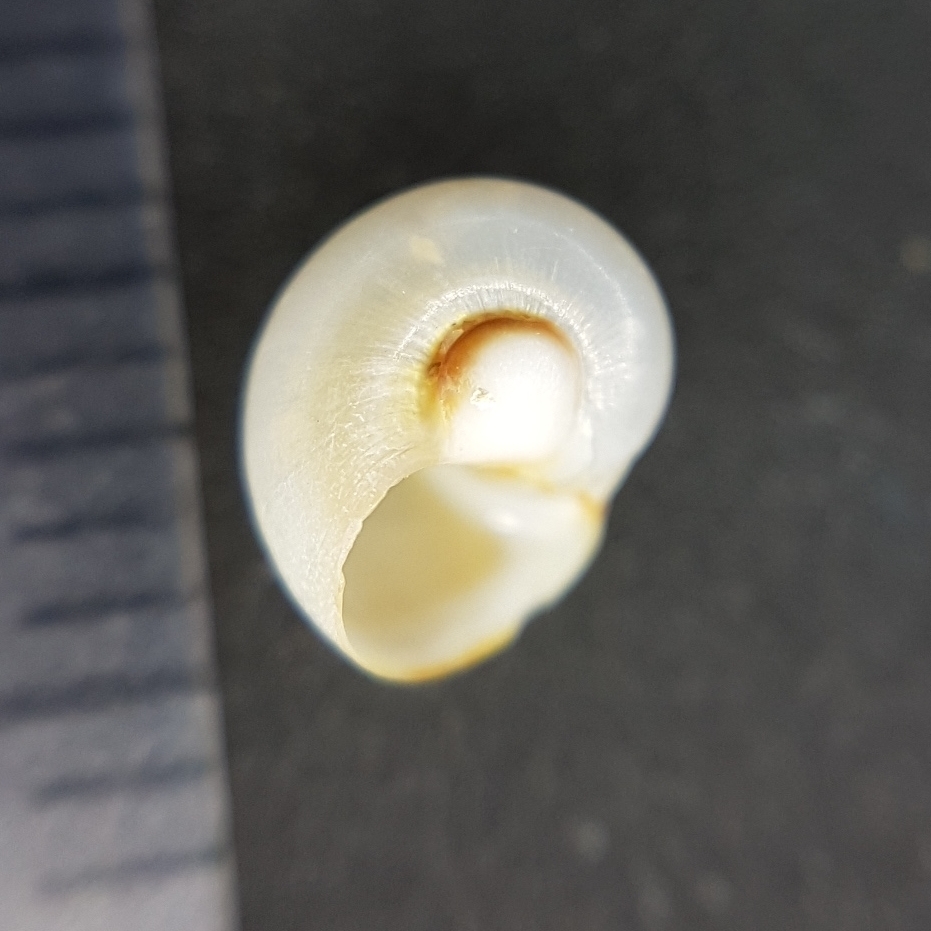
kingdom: Animalia
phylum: Mollusca
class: Gastropoda
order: Littorinimorpha
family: Naticidae
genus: Neverita
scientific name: Neverita josephinia
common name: Josephine's moonsnail
